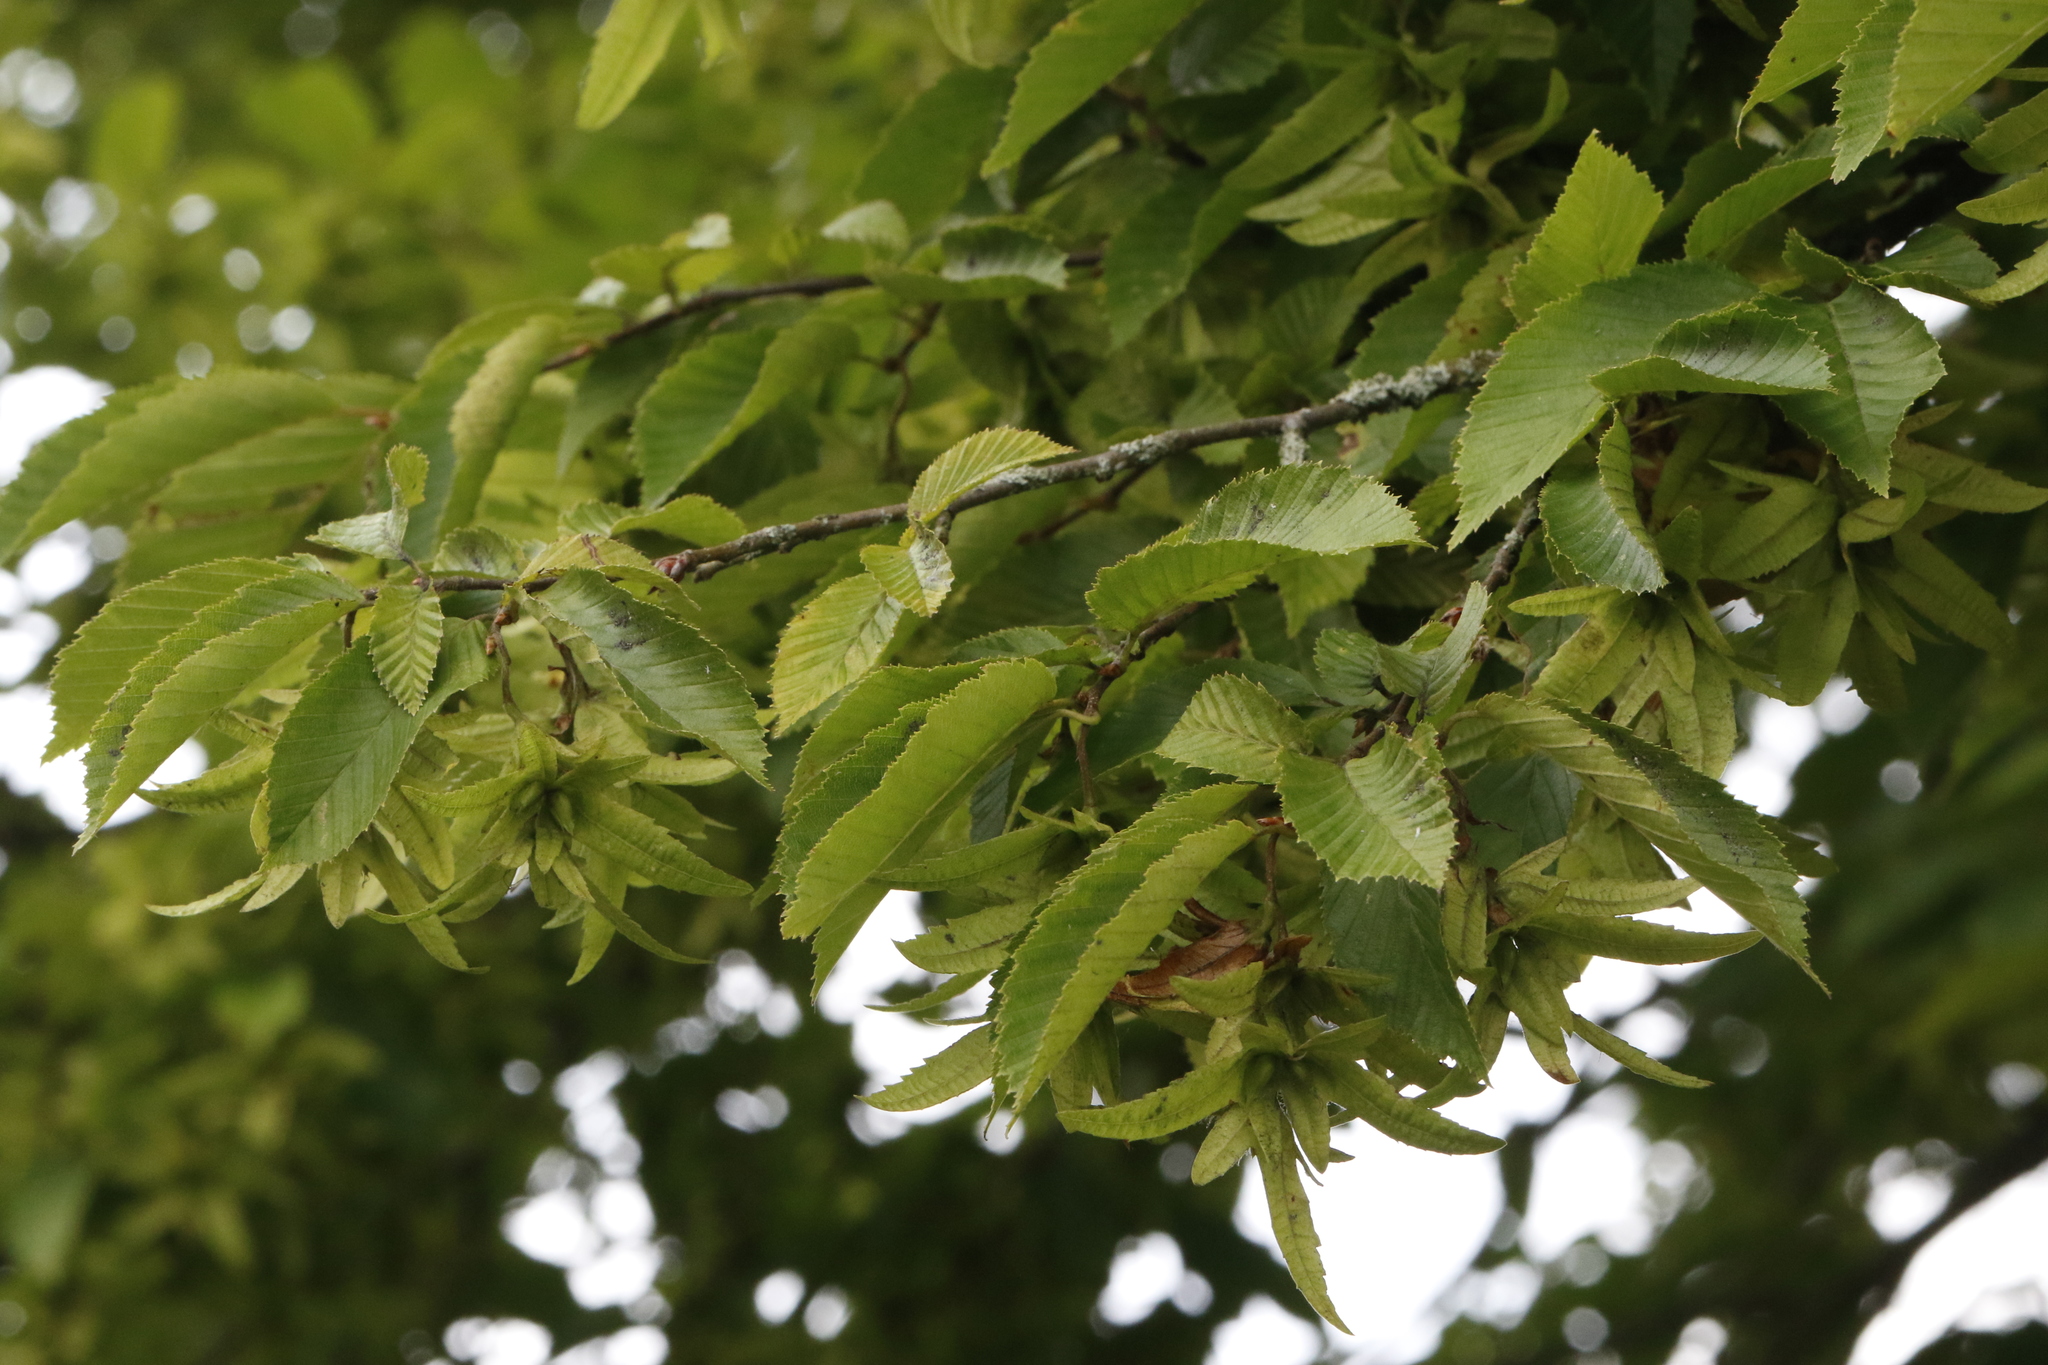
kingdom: Plantae
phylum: Tracheophyta
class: Magnoliopsida
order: Fagales
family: Betulaceae
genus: Carpinus
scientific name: Carpinus betulus
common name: Hornbeam
